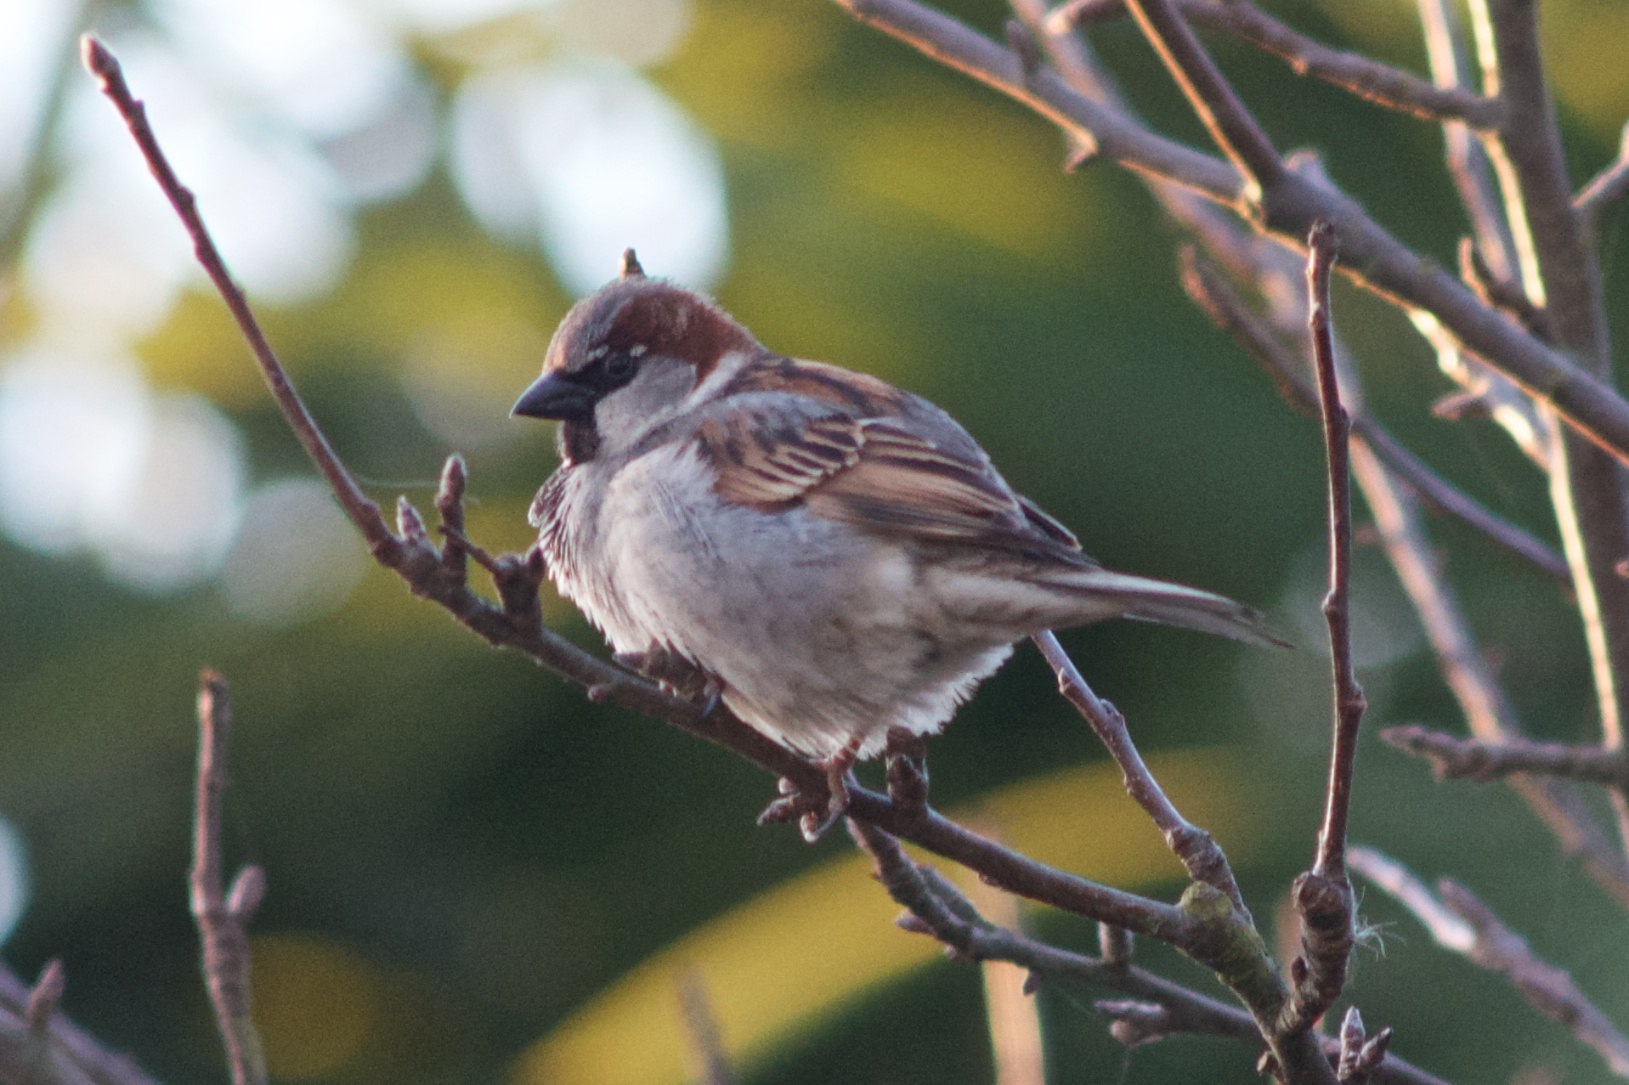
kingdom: Animalia
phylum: Chordata
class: Aves
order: Passeriformes
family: Passeridae
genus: Passer
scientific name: Passer domesticus
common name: House sparrow
